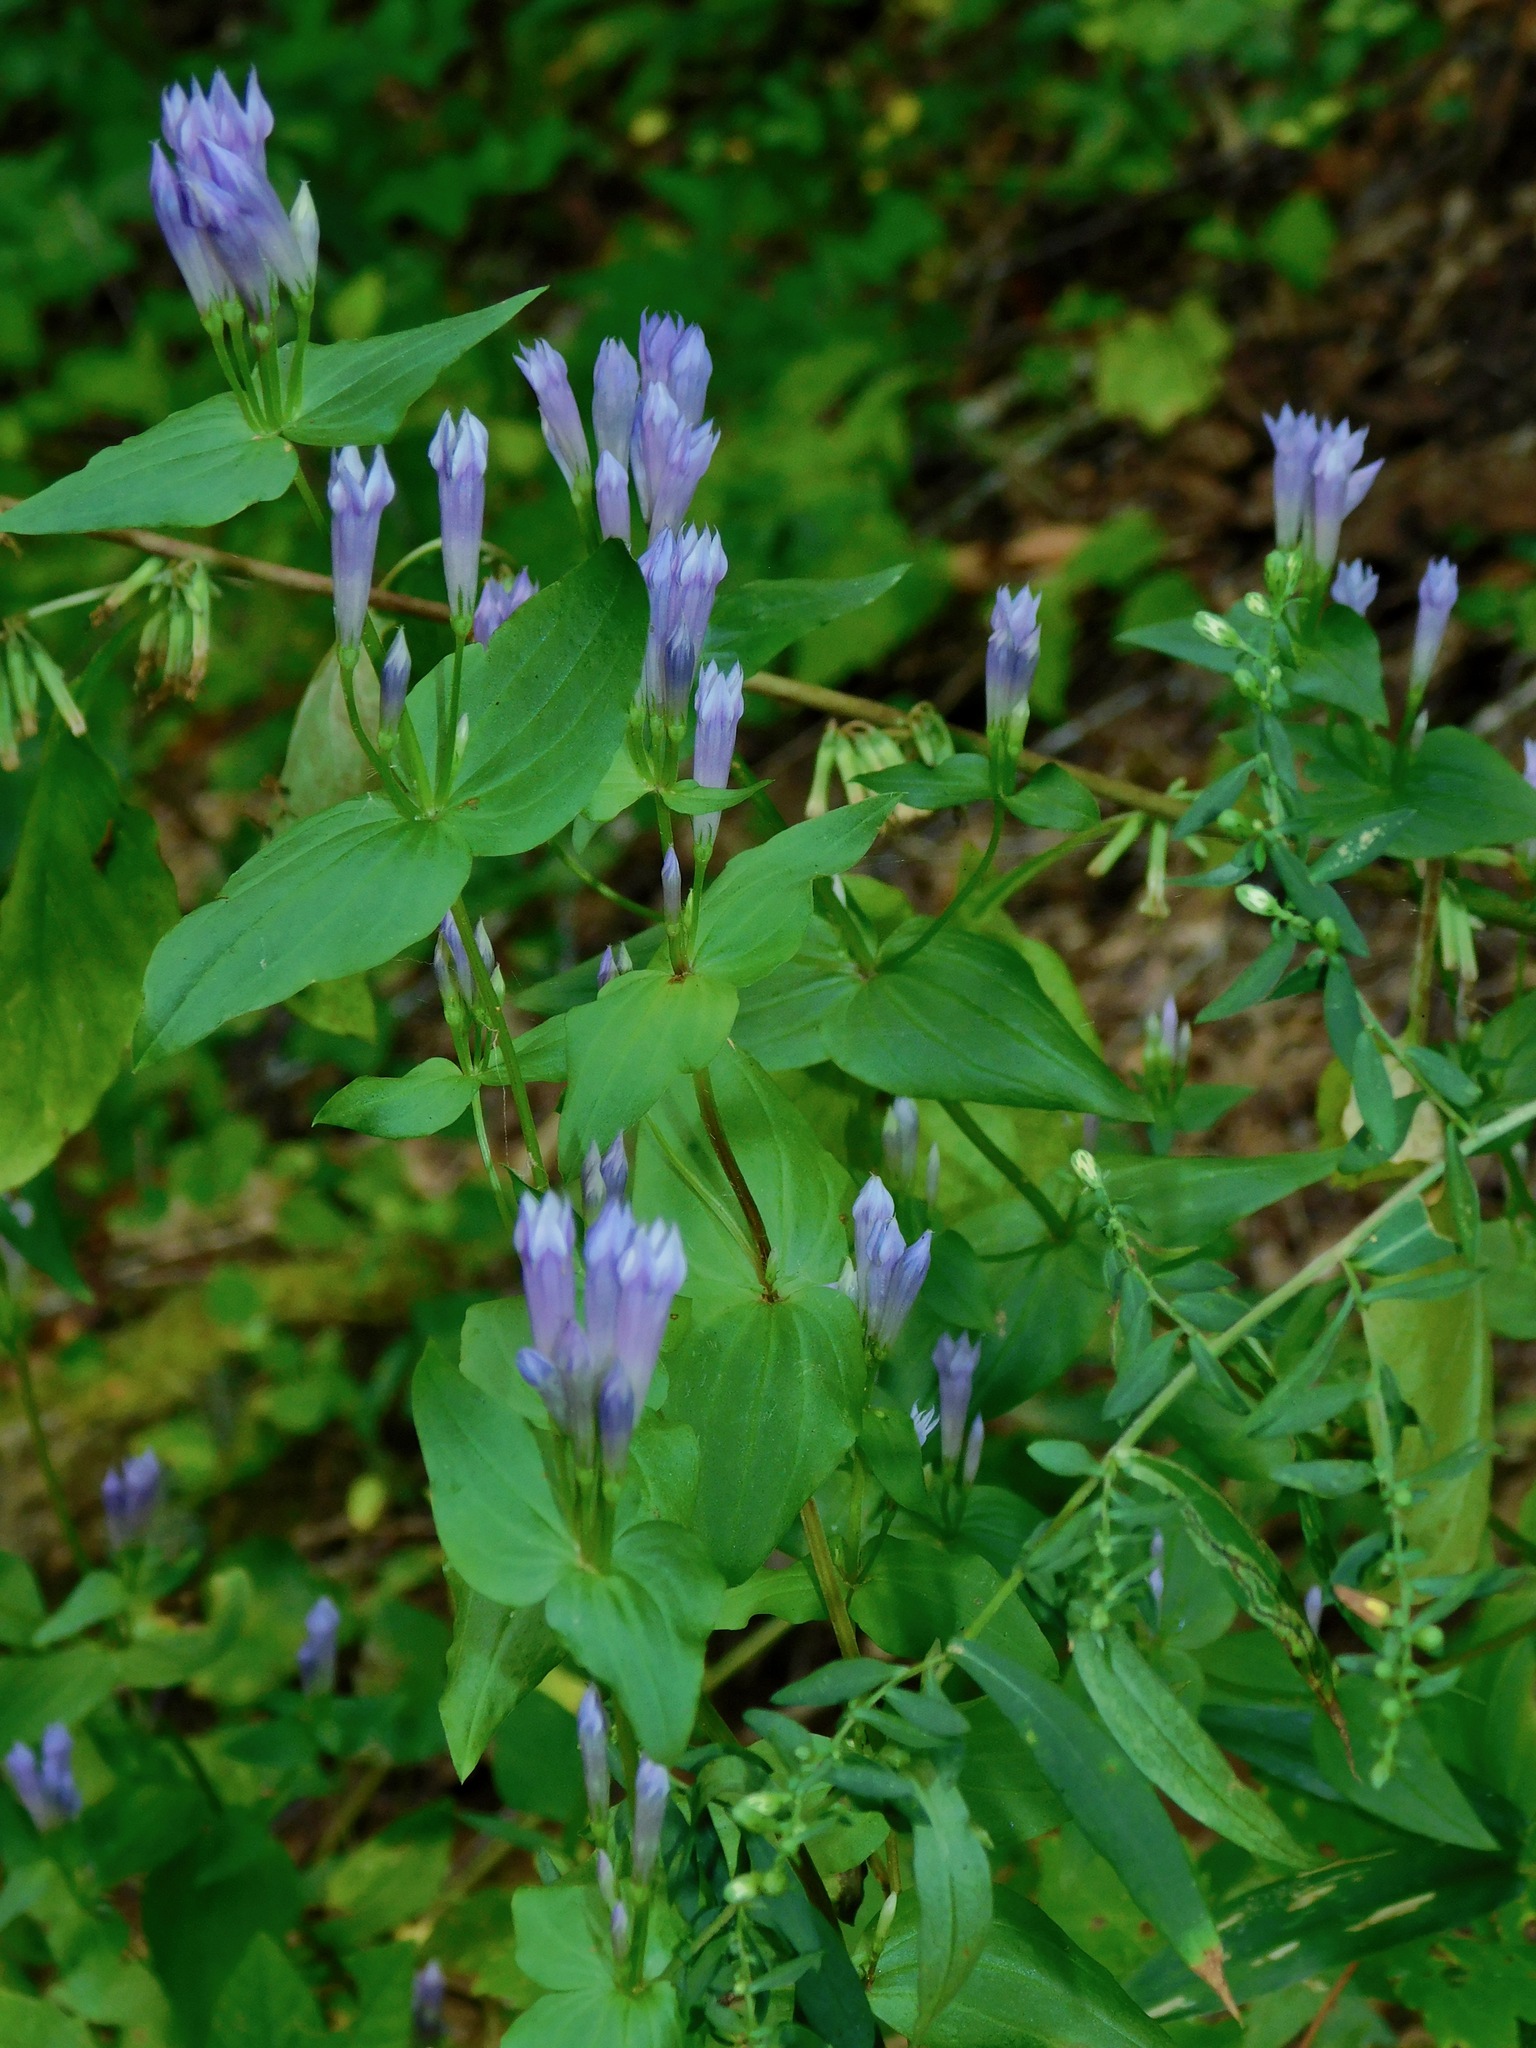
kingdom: Plantae
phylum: Tracheophyta
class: Magnoliopsida
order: Gentianales
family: Gentianaceae
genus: Gentianella
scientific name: Gentianella quinquefolia
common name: Agueweed
